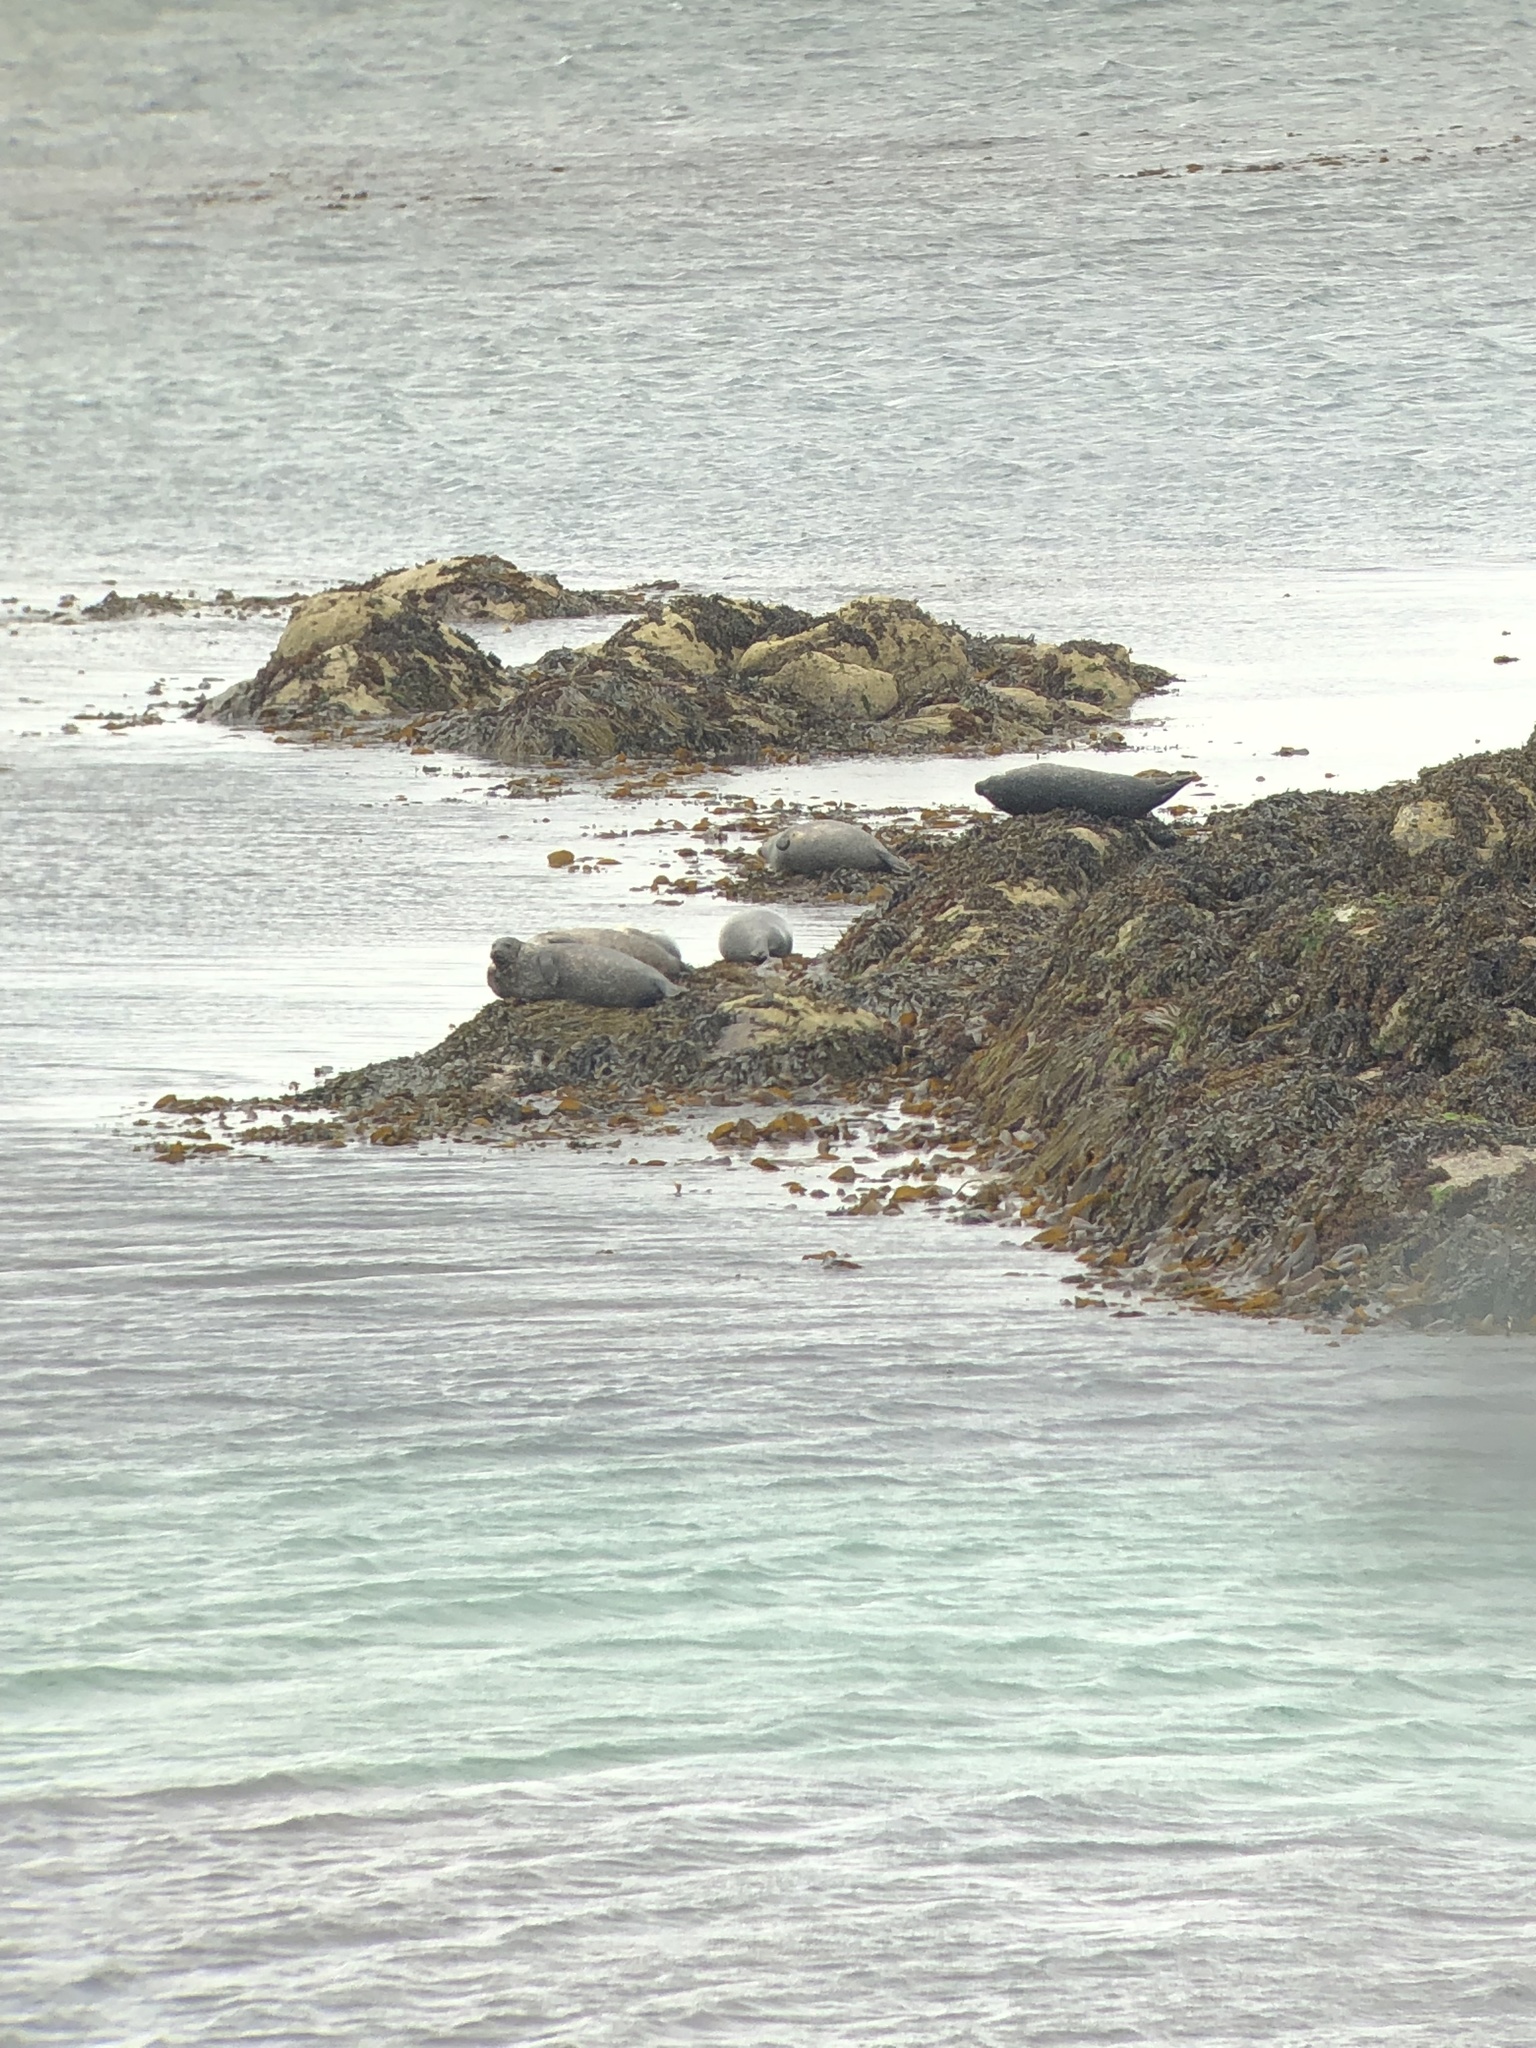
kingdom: Animalia
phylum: Chordata
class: Mammalia
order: Carnivora
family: Phocidae
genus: Phoca
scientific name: Phoca vitulina
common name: Harbor seal
